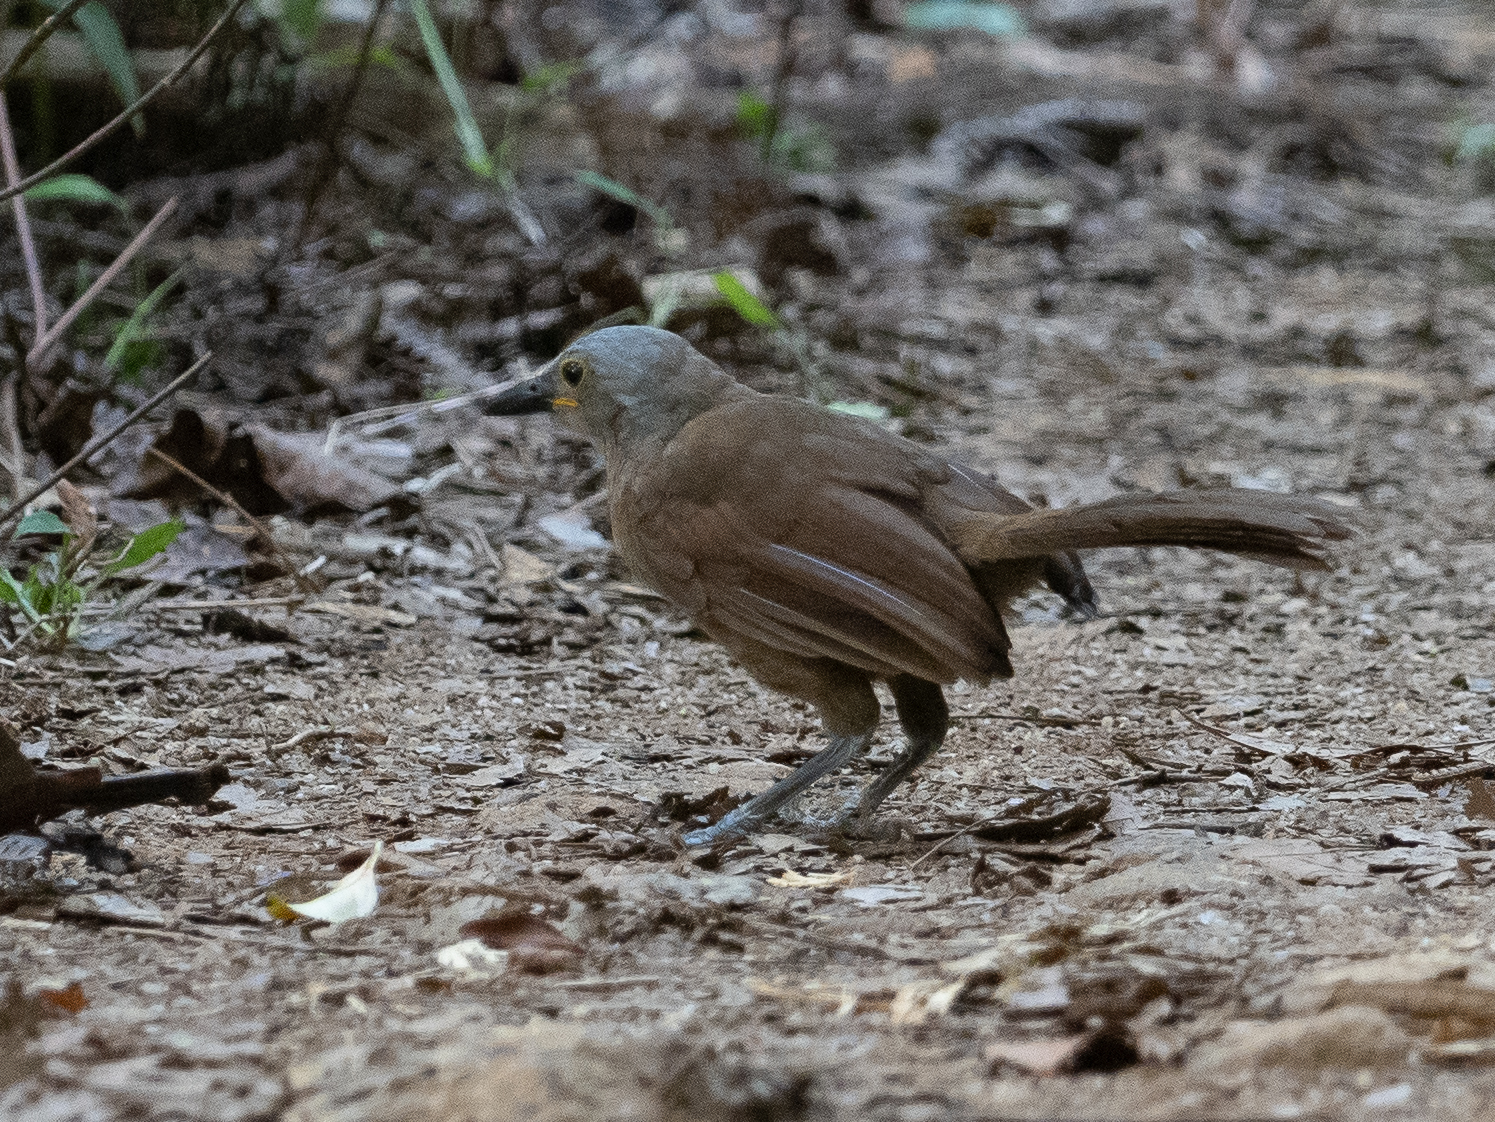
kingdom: Animalia
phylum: Chordata
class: Aves
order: Passeriformes
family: Leiothrichidae
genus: Garrulax
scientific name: Garrulax cinereifrons
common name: Ashy-headed laughingthrush
